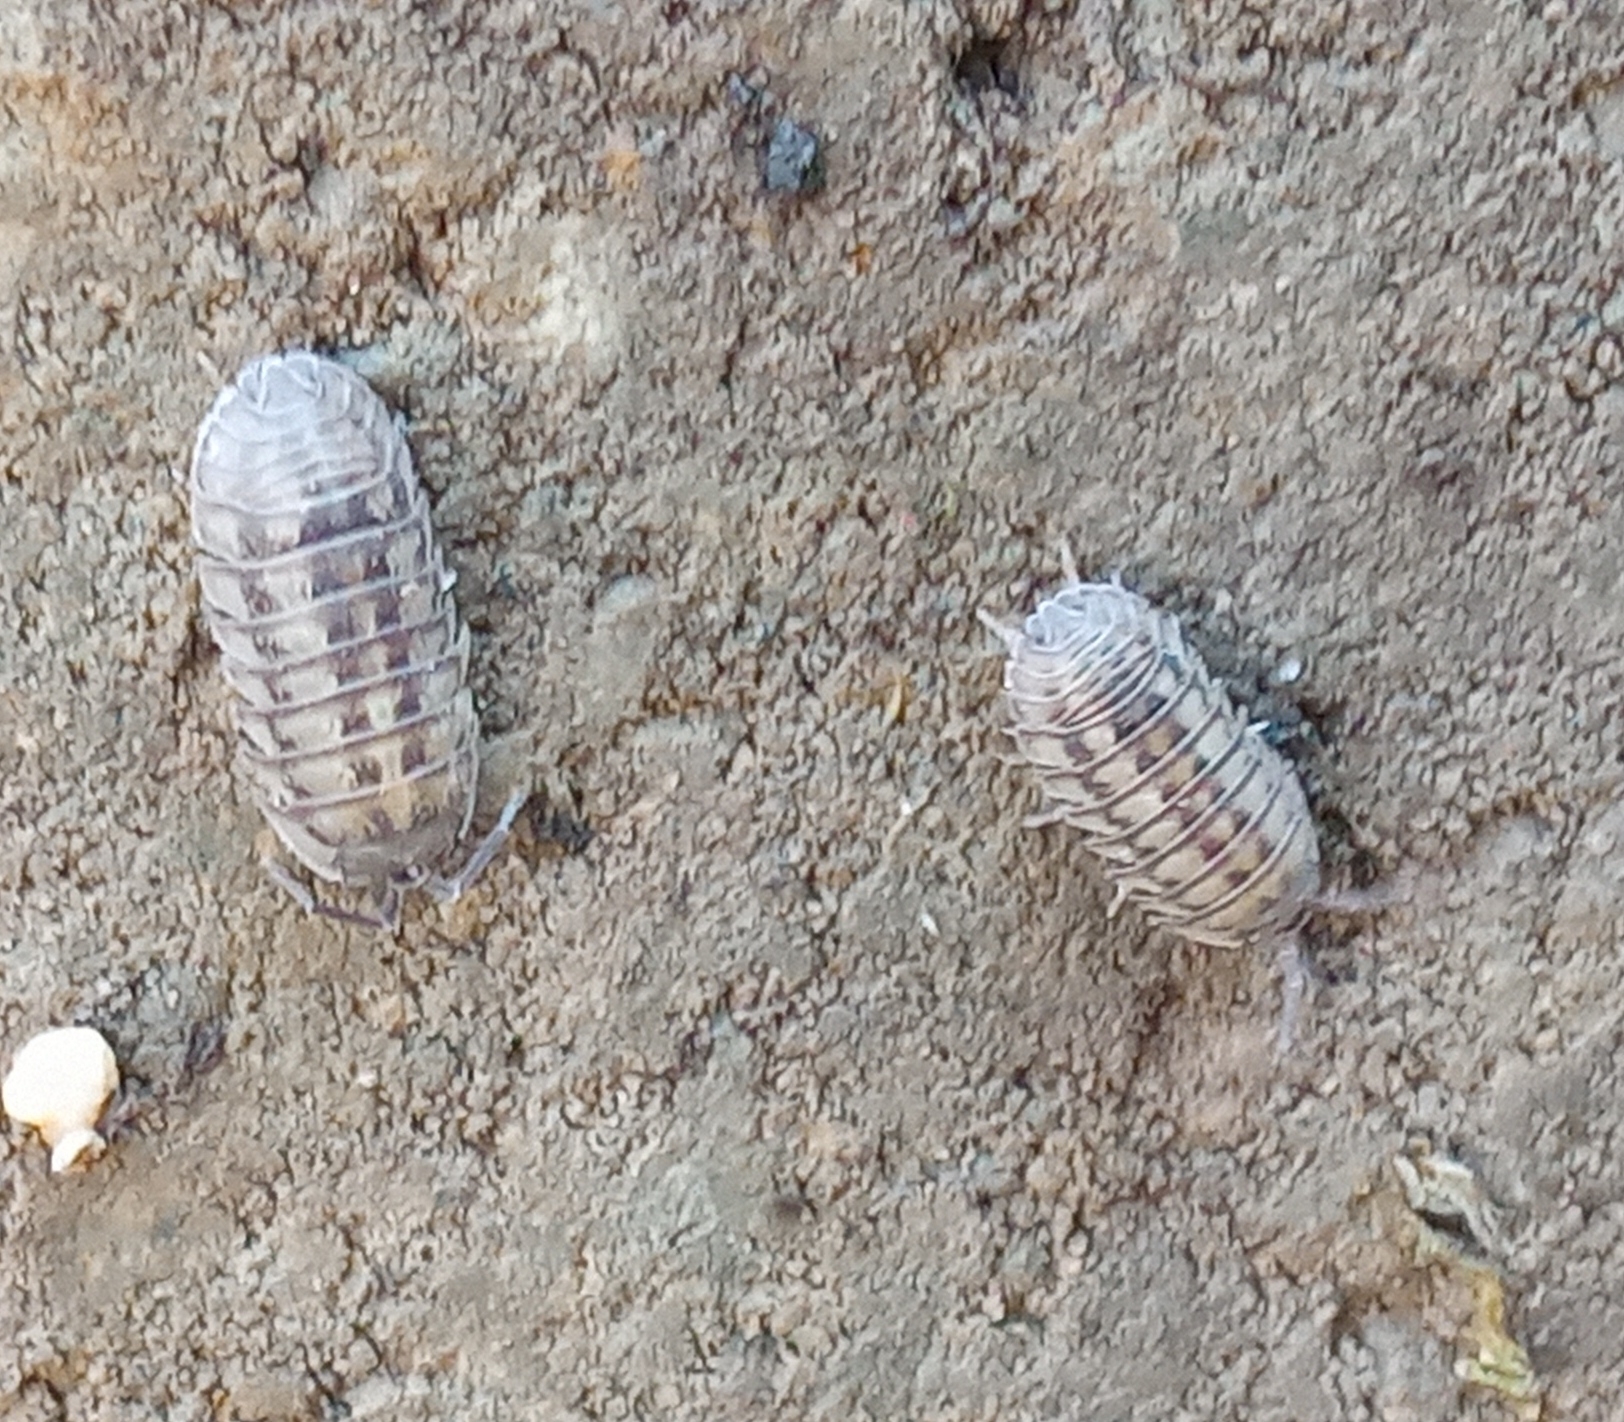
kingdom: Animalia
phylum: Arthropoda
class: Malacostraca
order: Isopoda
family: Armadillidiidae
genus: Armadillidium
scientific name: Armadillidium nasatum
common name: Isopod
